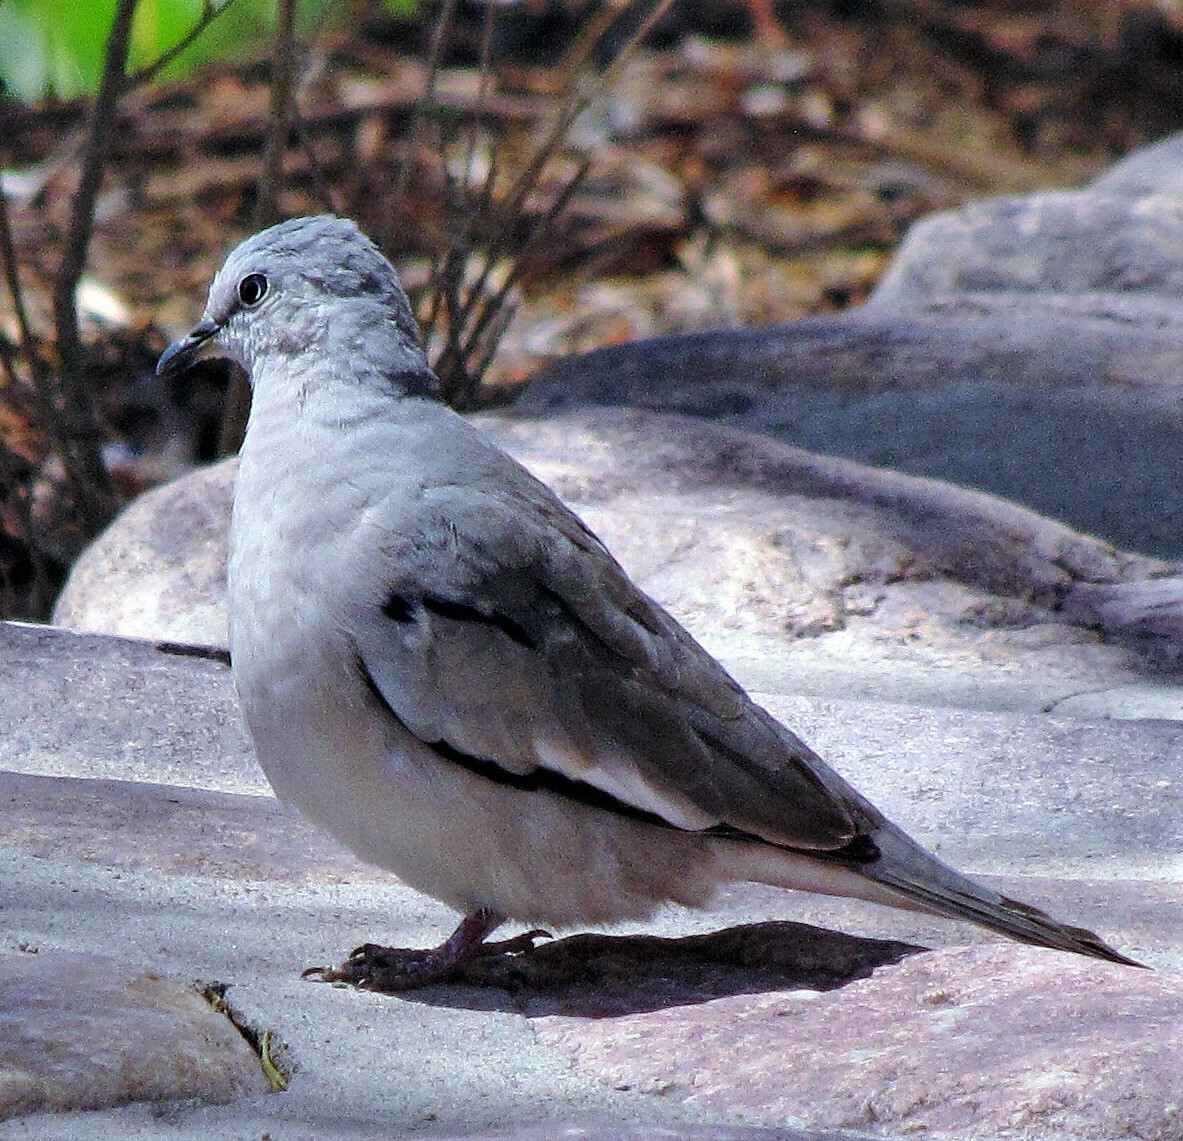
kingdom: Animalia
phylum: Chordata
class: Aves
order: Columbiformes
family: Columbidae
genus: Columbina
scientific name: Columbina picui
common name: Picui ground dove
